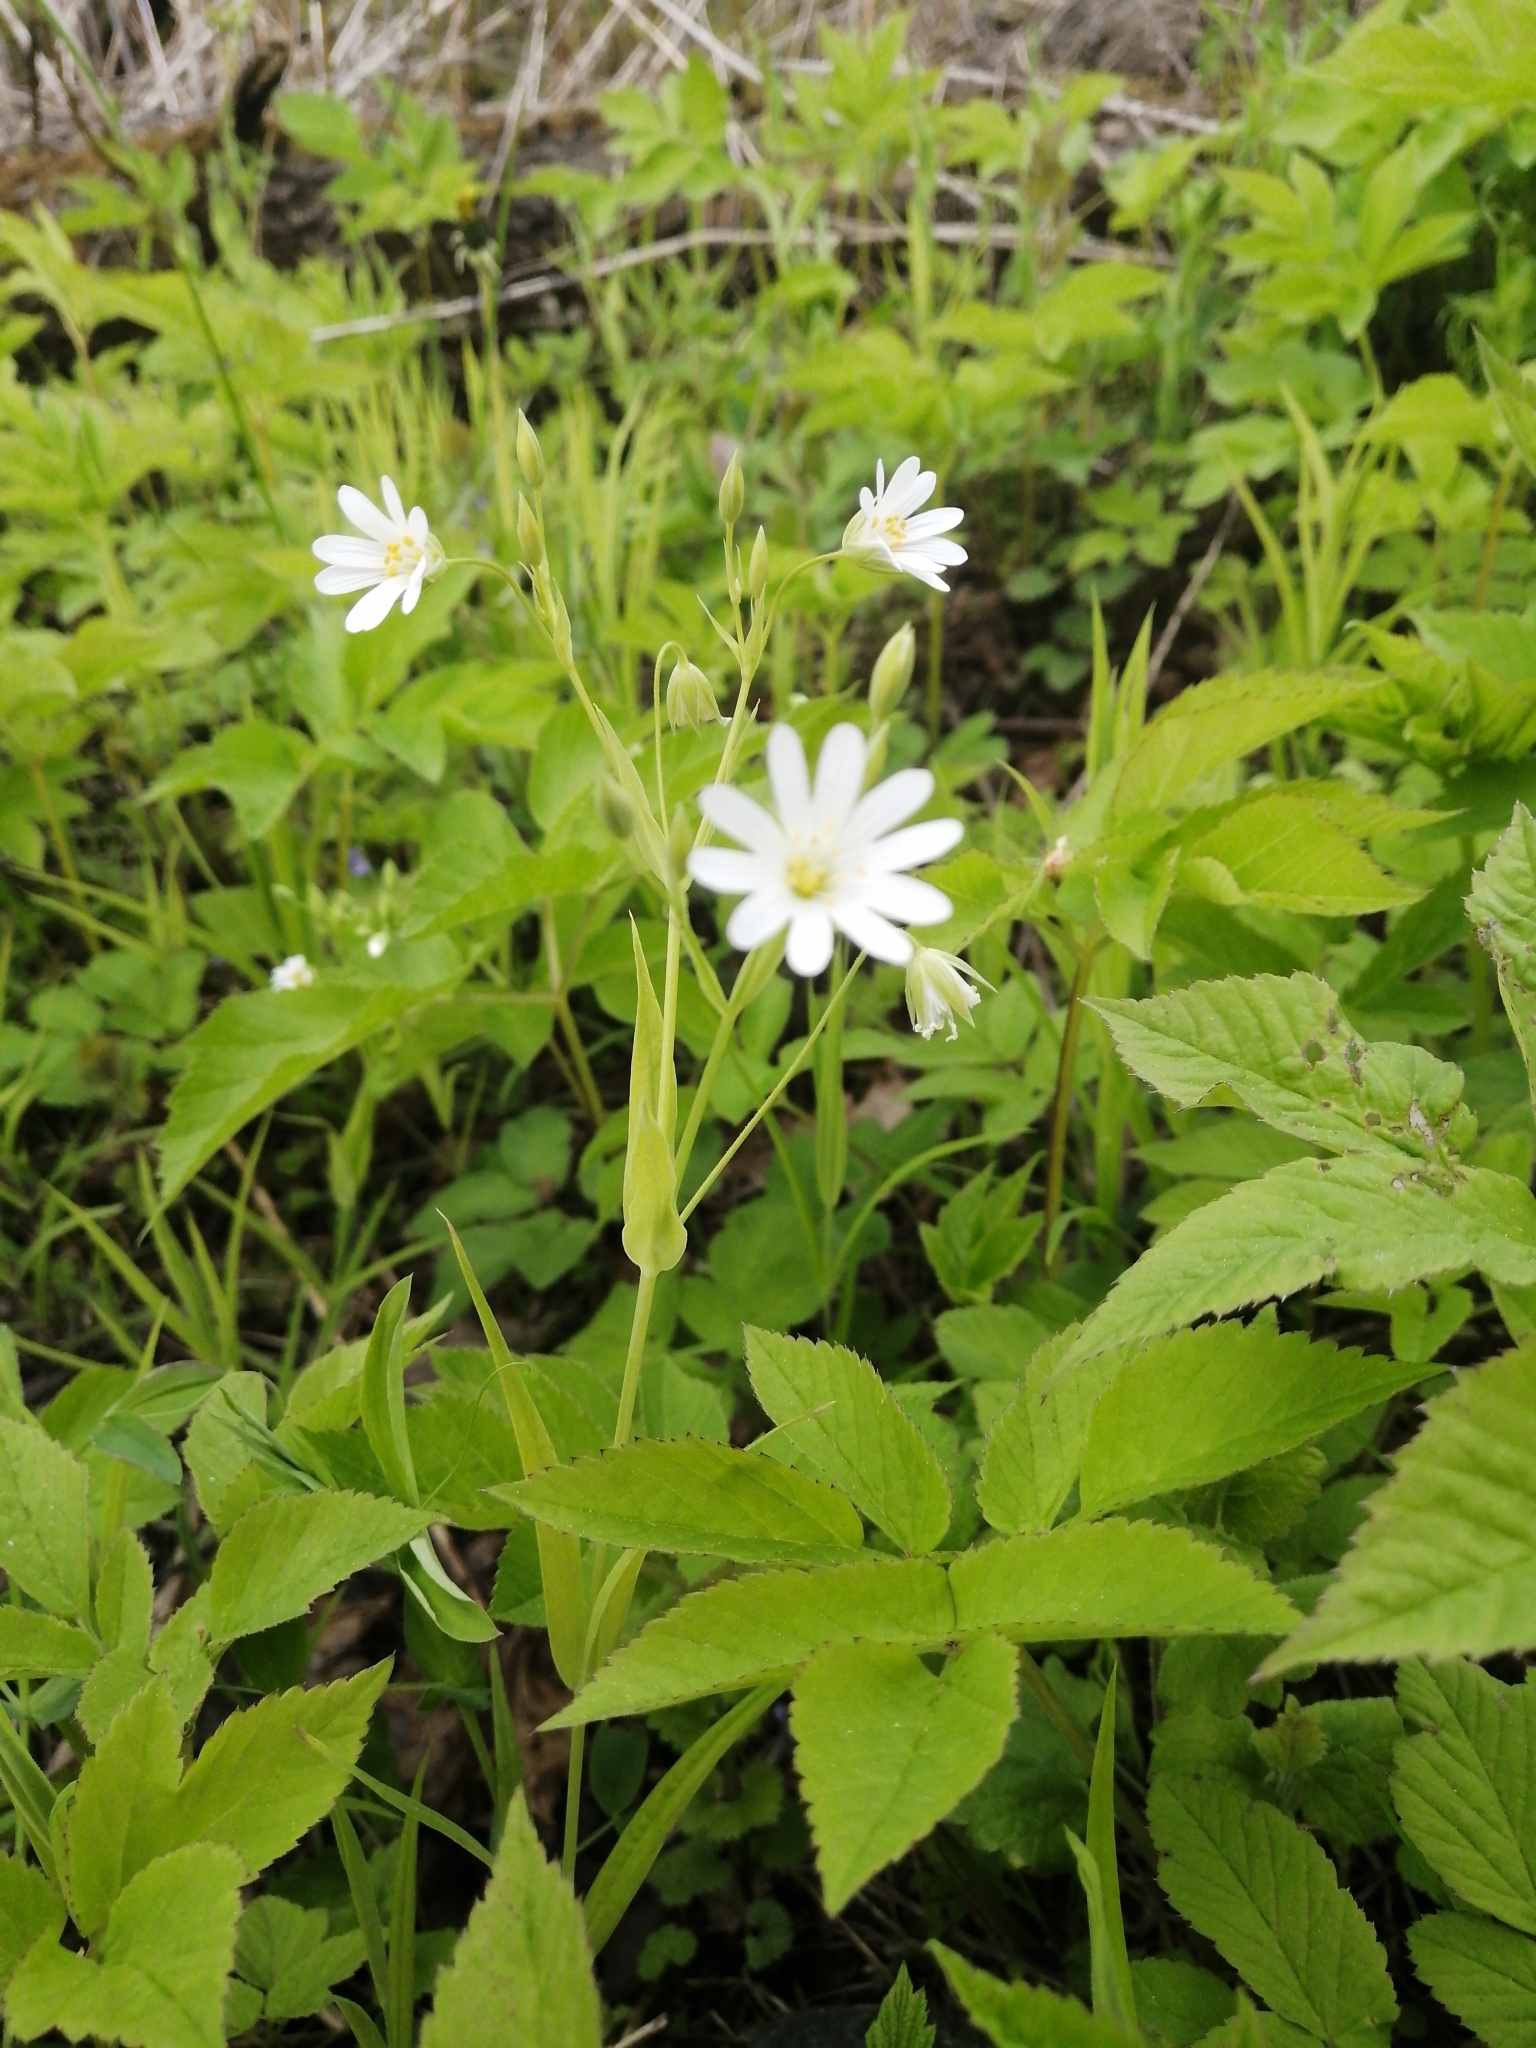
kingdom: Plantae
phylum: Tracheophyta
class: Magnoliopsida
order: Caryophyllales
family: Caryophyllaceae
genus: Rabelera
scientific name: Rabelera holostea
